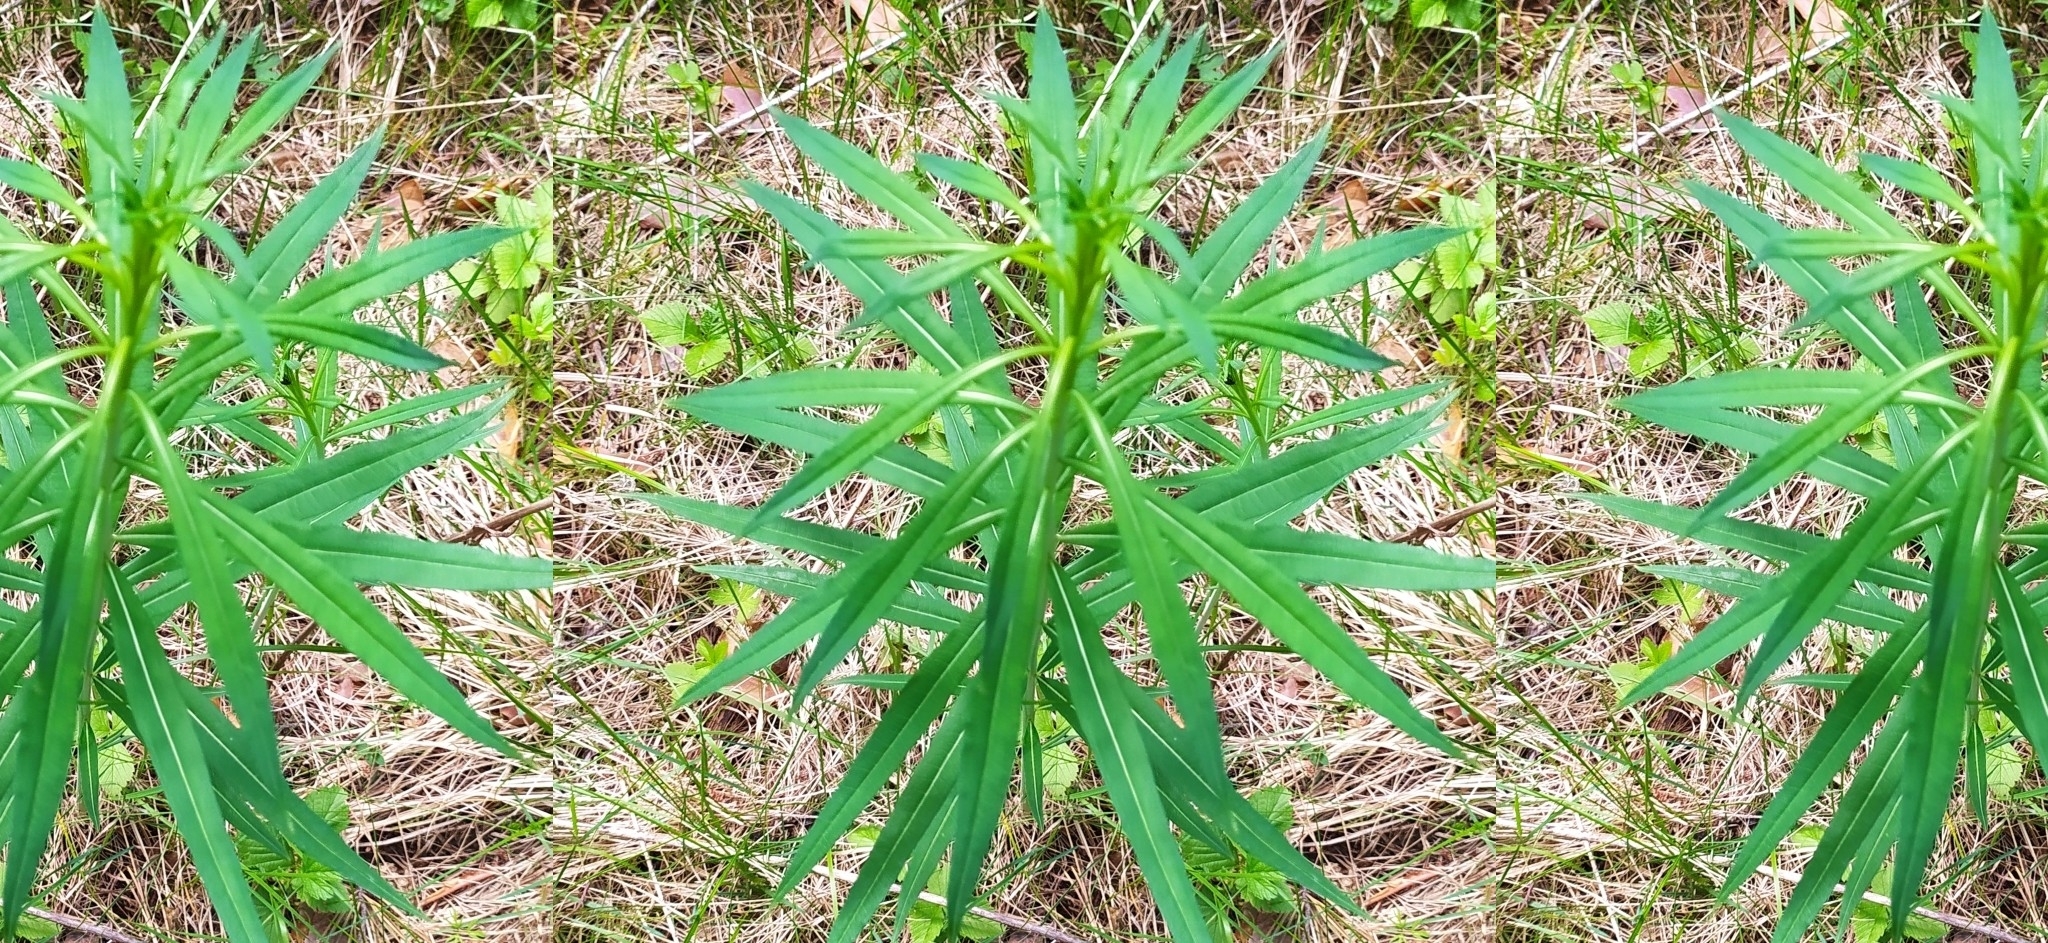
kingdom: Plantae
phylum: Tracheophyta
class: Magnoliopsida
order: Myrtales
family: Onagraceae
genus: Chamaenerion
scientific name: Chamaenerion angustifolium
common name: Fireweed
